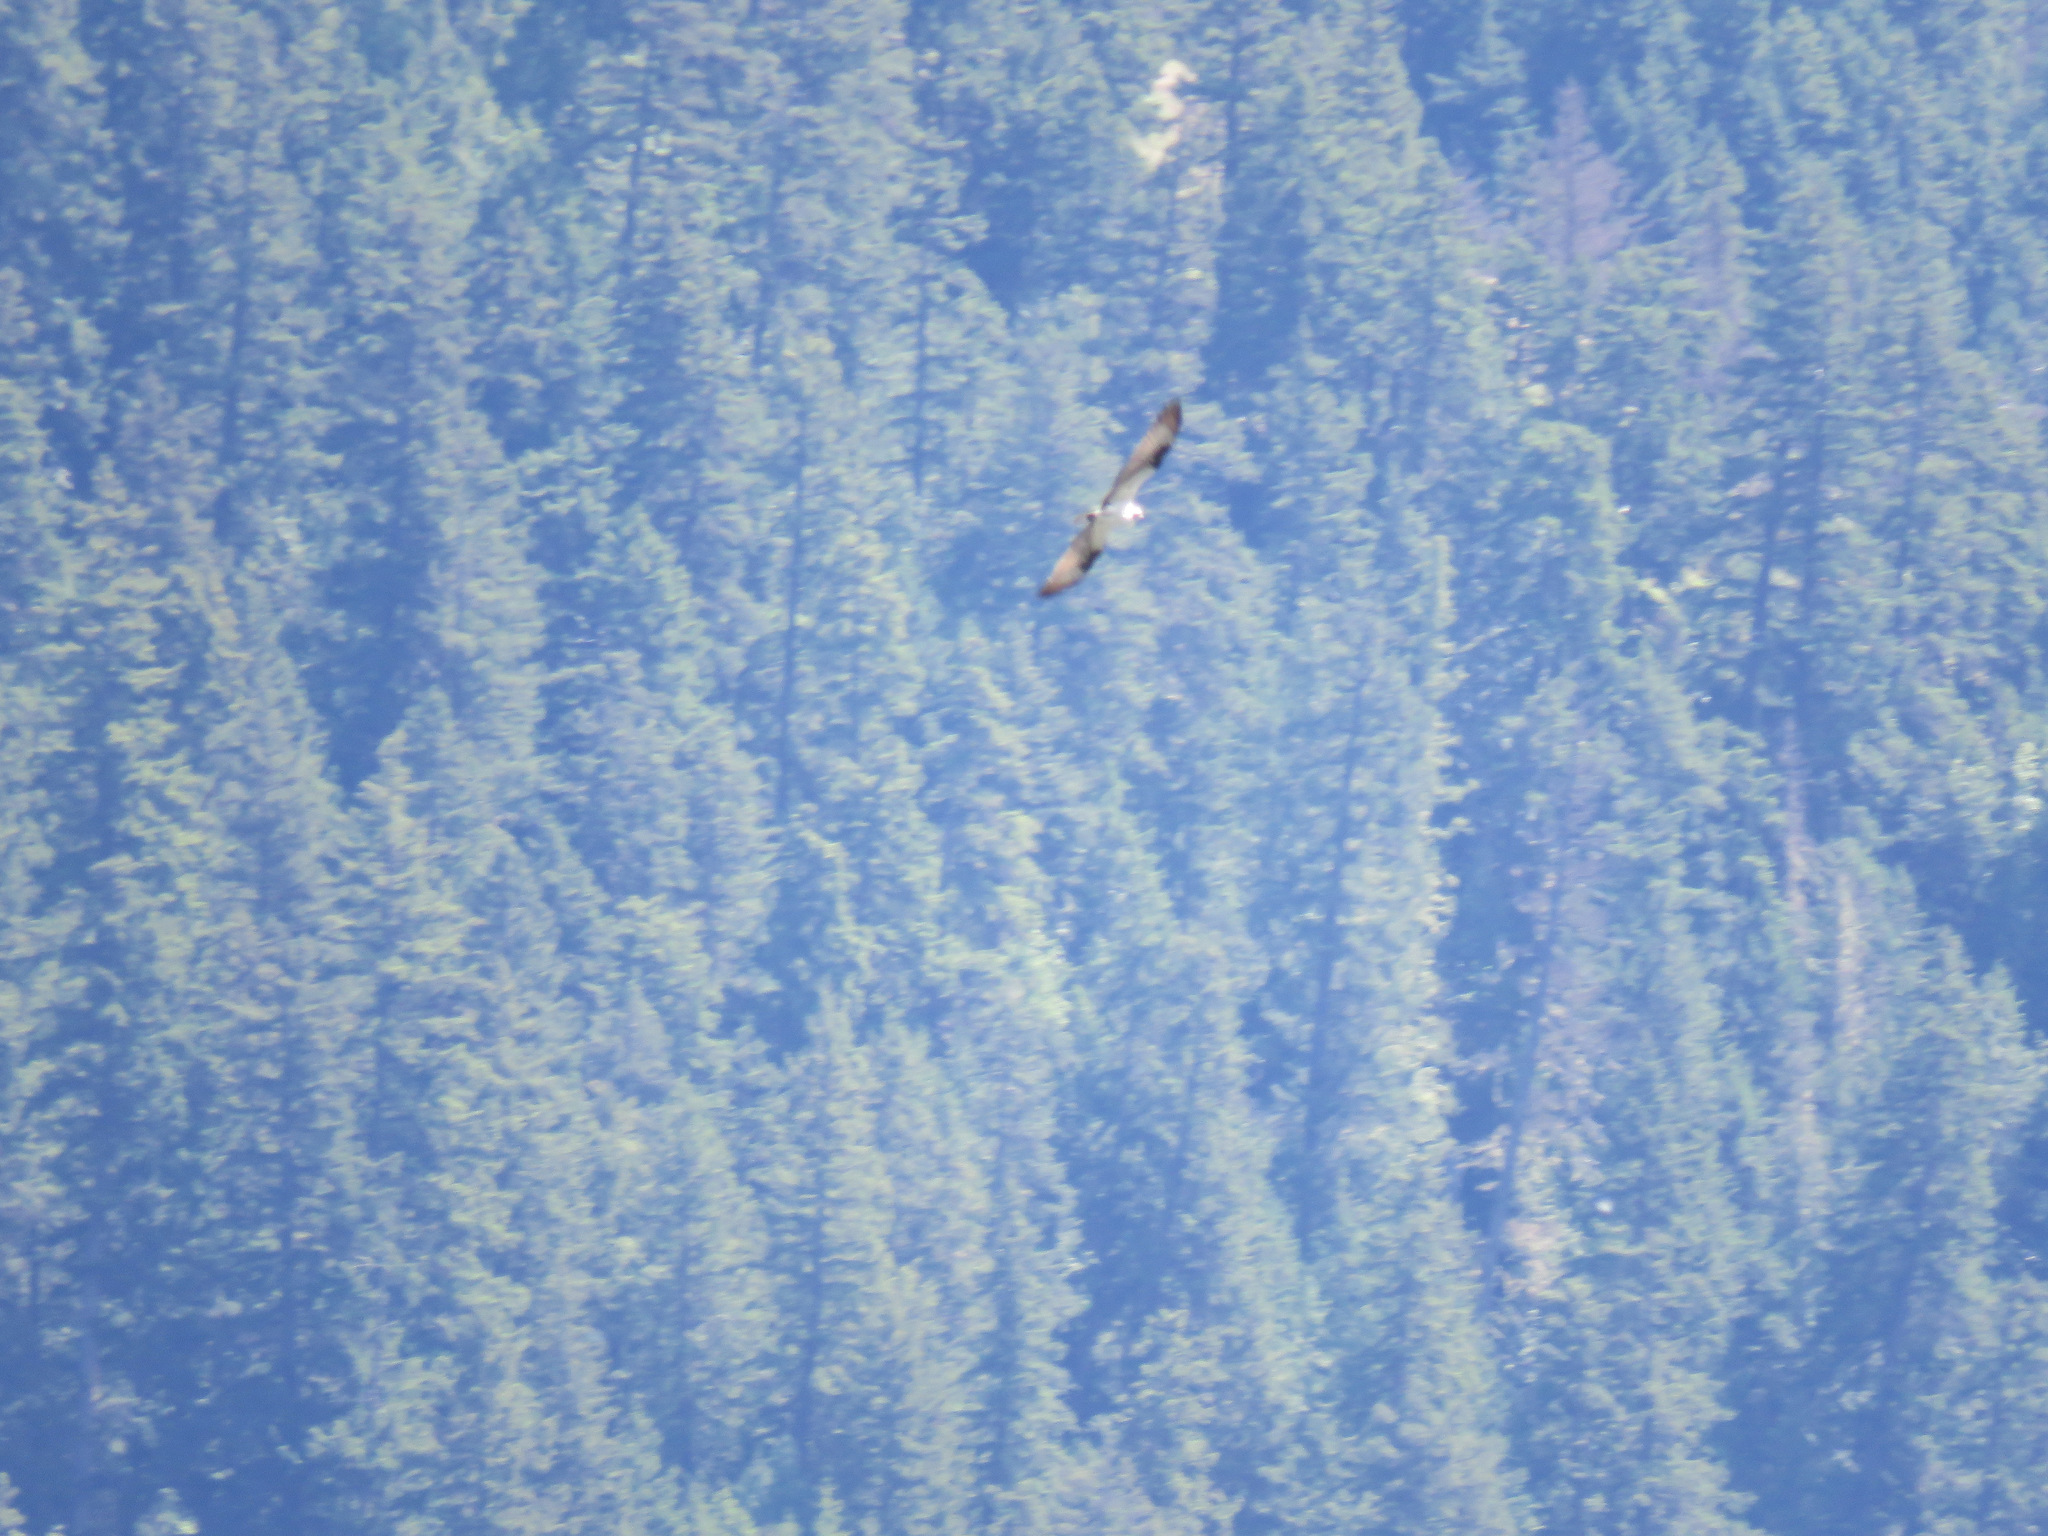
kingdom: Animalia
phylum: Chordata
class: Aves
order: Accipitriformes
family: Pandionidae
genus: Pandion
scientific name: Pandion haliaetus
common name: Osprey
